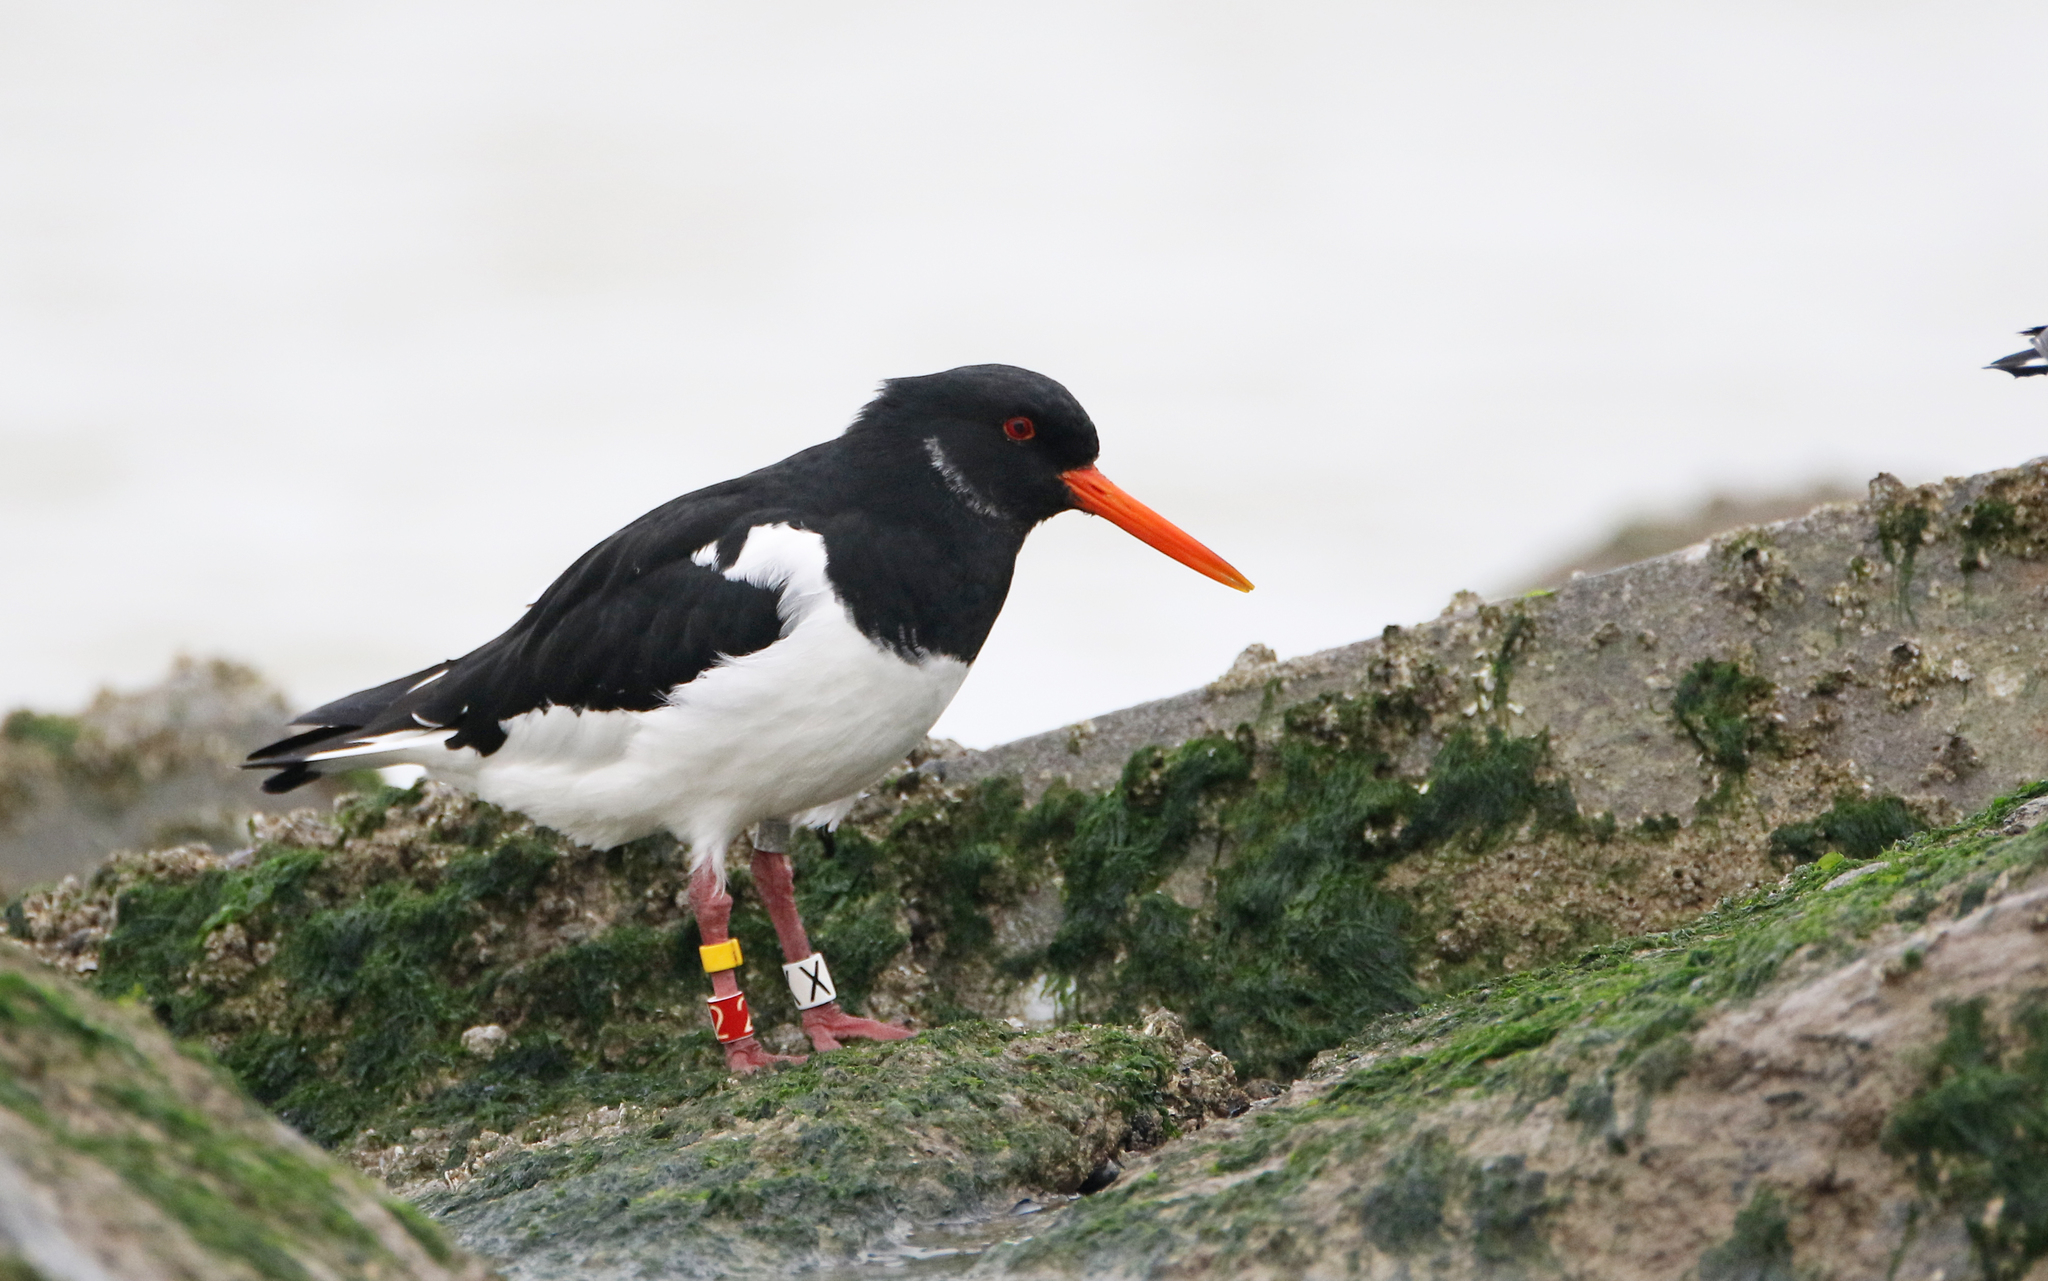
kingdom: Animalia
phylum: Chordata
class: Aves
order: Charadriiformes
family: Haematopodidae
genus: Haematopus
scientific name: Haematopus ostralegus
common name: Eurasian oystercatcher
